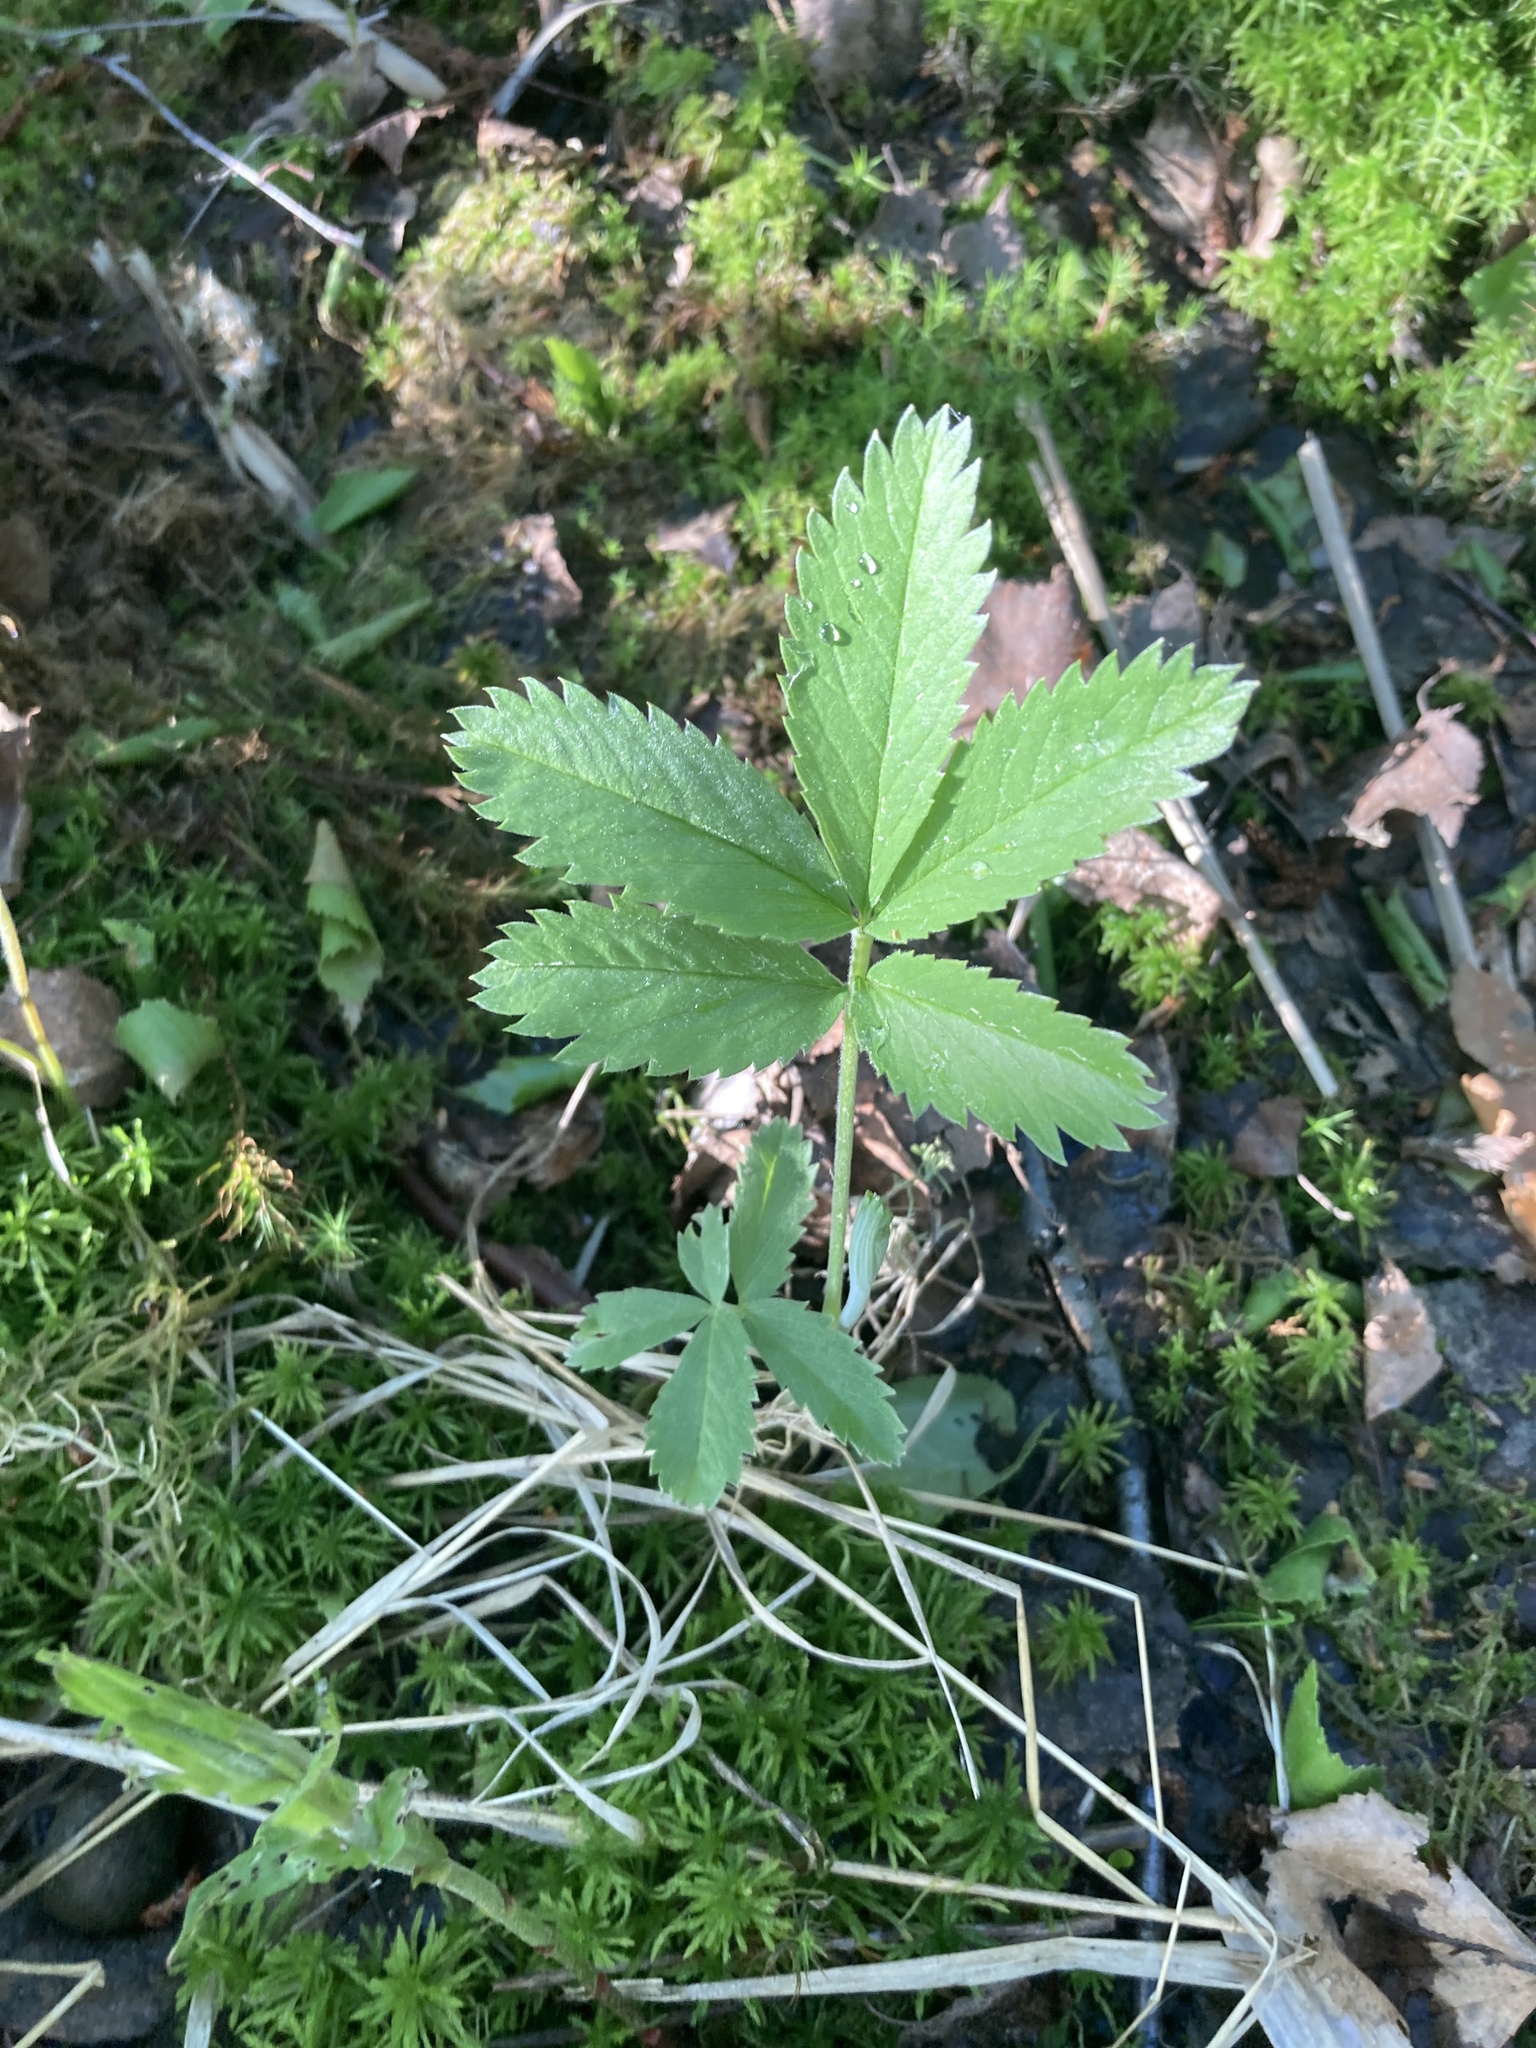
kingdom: Plantae
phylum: Tracheophyta
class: Magnoliopsida
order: Rosales
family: Rosaceae
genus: Comarum
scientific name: Comarum palustre
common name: Marsh cinquefoil
